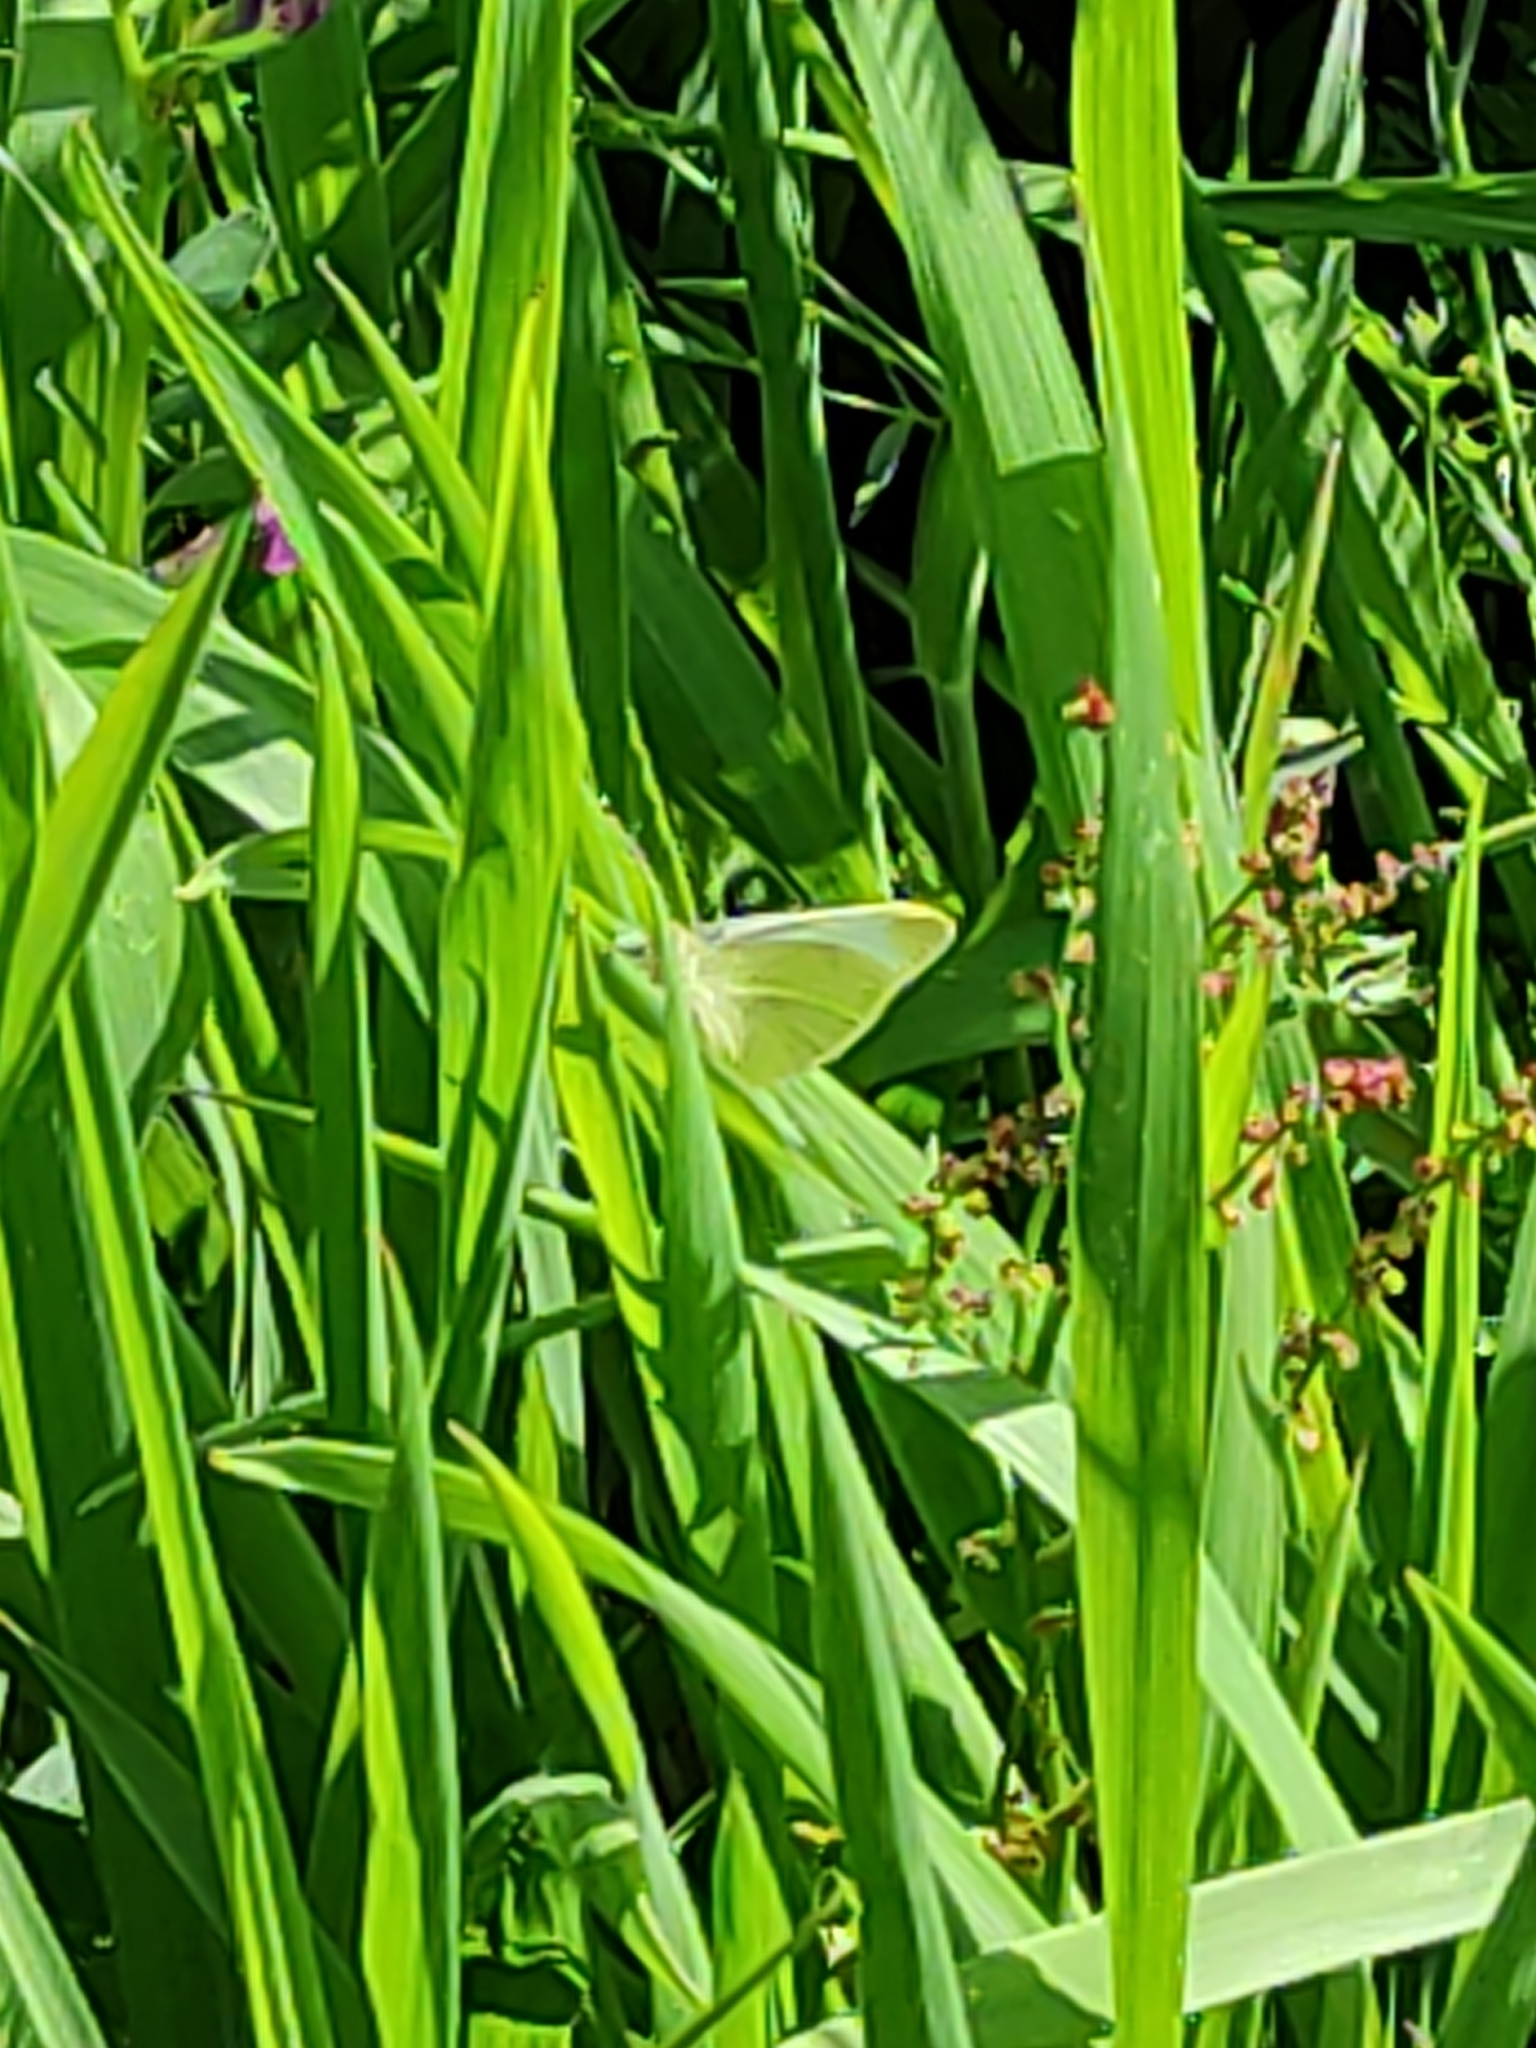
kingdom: Animalia
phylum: Arthropoda
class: Insecta
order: Lepidoptera
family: Pieridae
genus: Pieris
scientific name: Pieris rapae
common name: Small white
